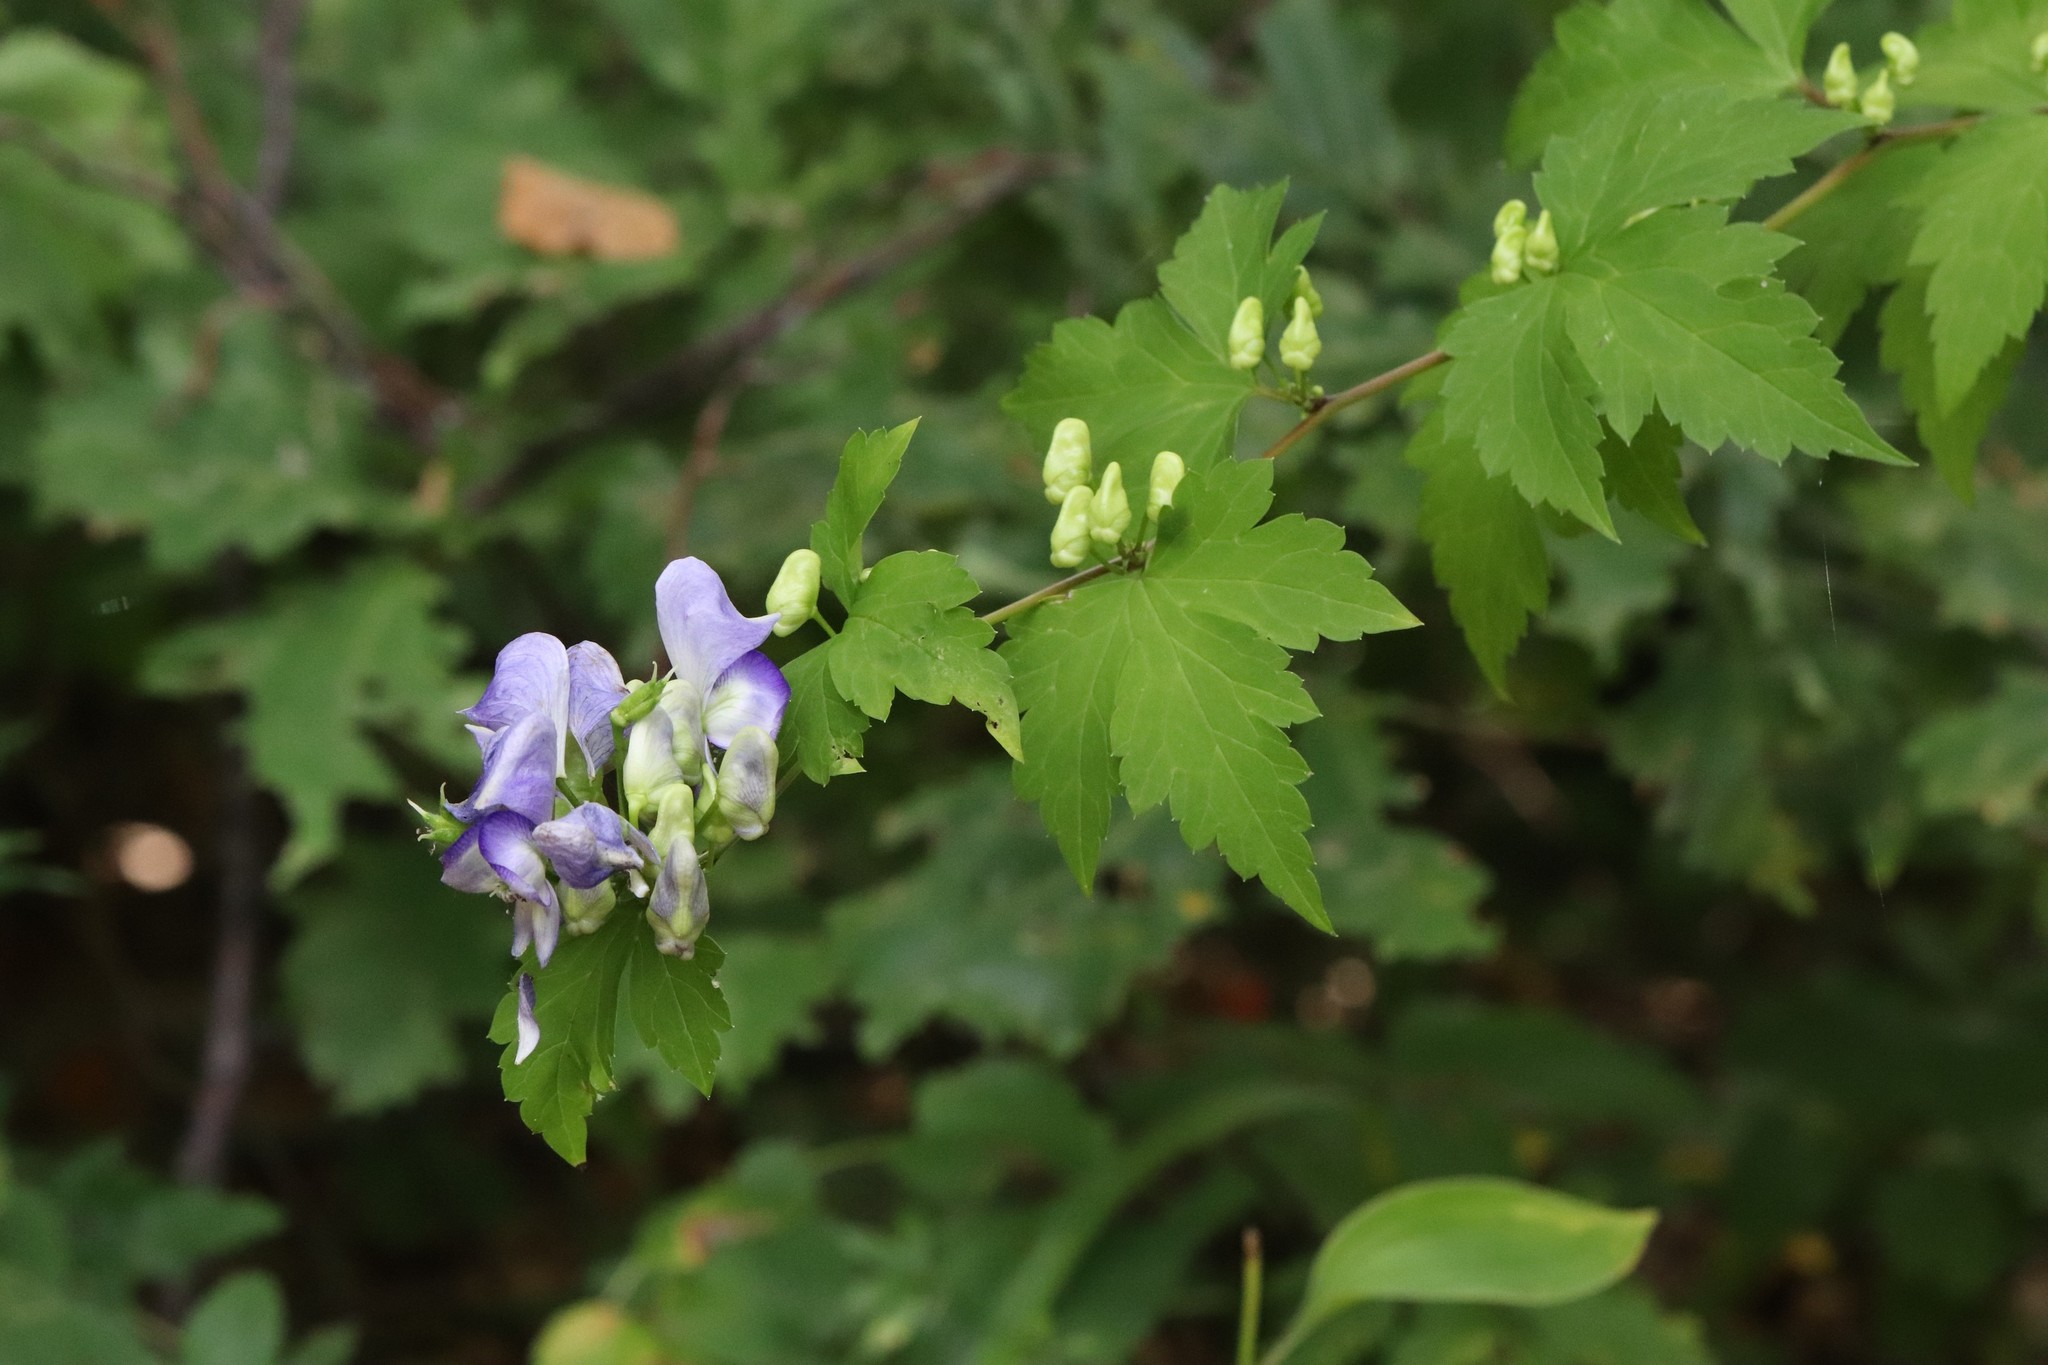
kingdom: Plantae
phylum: Tracheophyta
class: Magnoliopsida
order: Ranunculales
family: Ranunculaceae
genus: Aconitum
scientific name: Aconitum sczukinii
